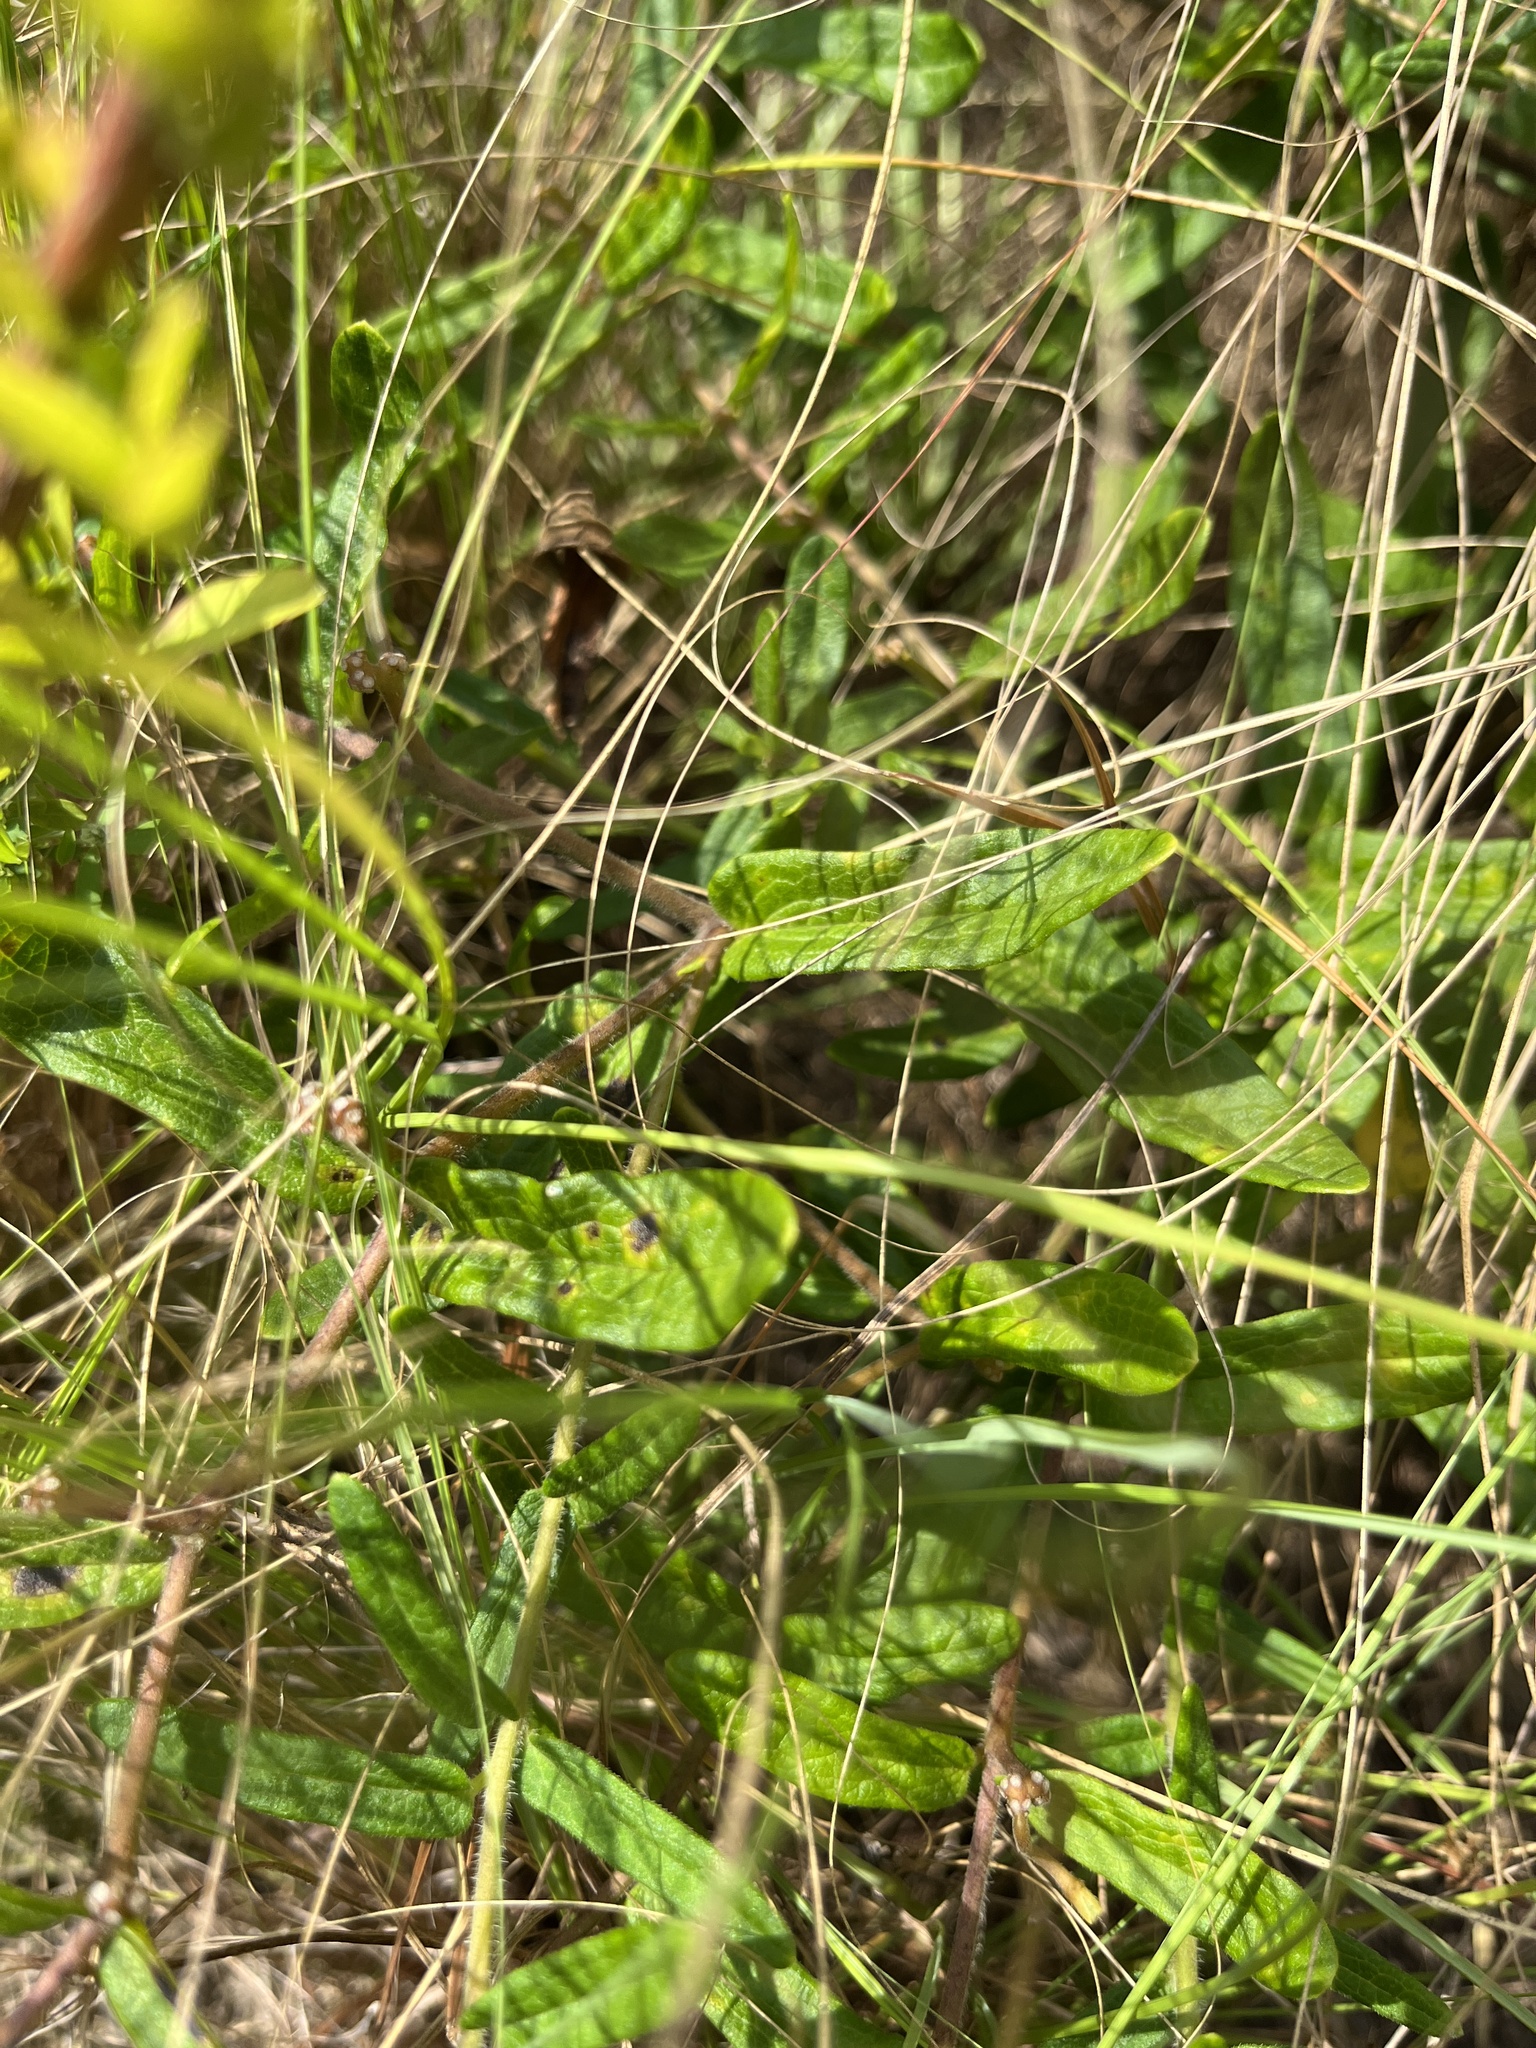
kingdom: Plantae
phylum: Tracheophyta
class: Magnoliopsida
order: Gentianales
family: Apocynaceae
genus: Asclepias
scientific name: Asclepias tuberosa
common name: Butterfly milkweed
